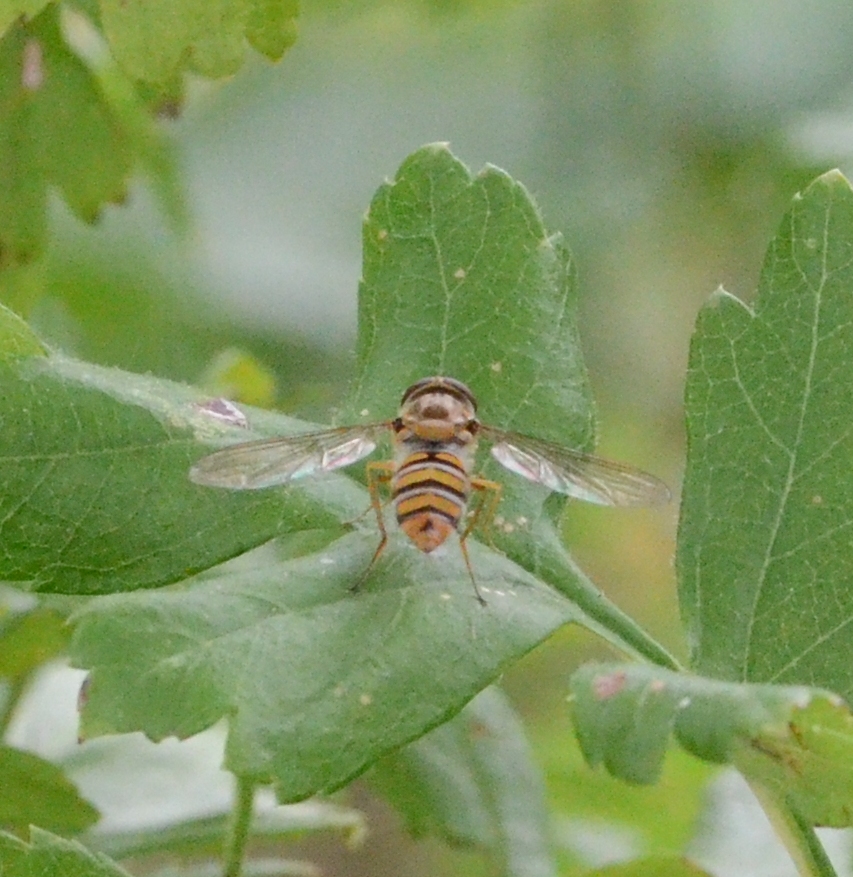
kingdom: Animalia
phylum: Arthropoda
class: Insecta
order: Diptera
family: Syrphidae
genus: Episyrphus
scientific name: Episyrphus balteatus
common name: Marmalade hoverfly
